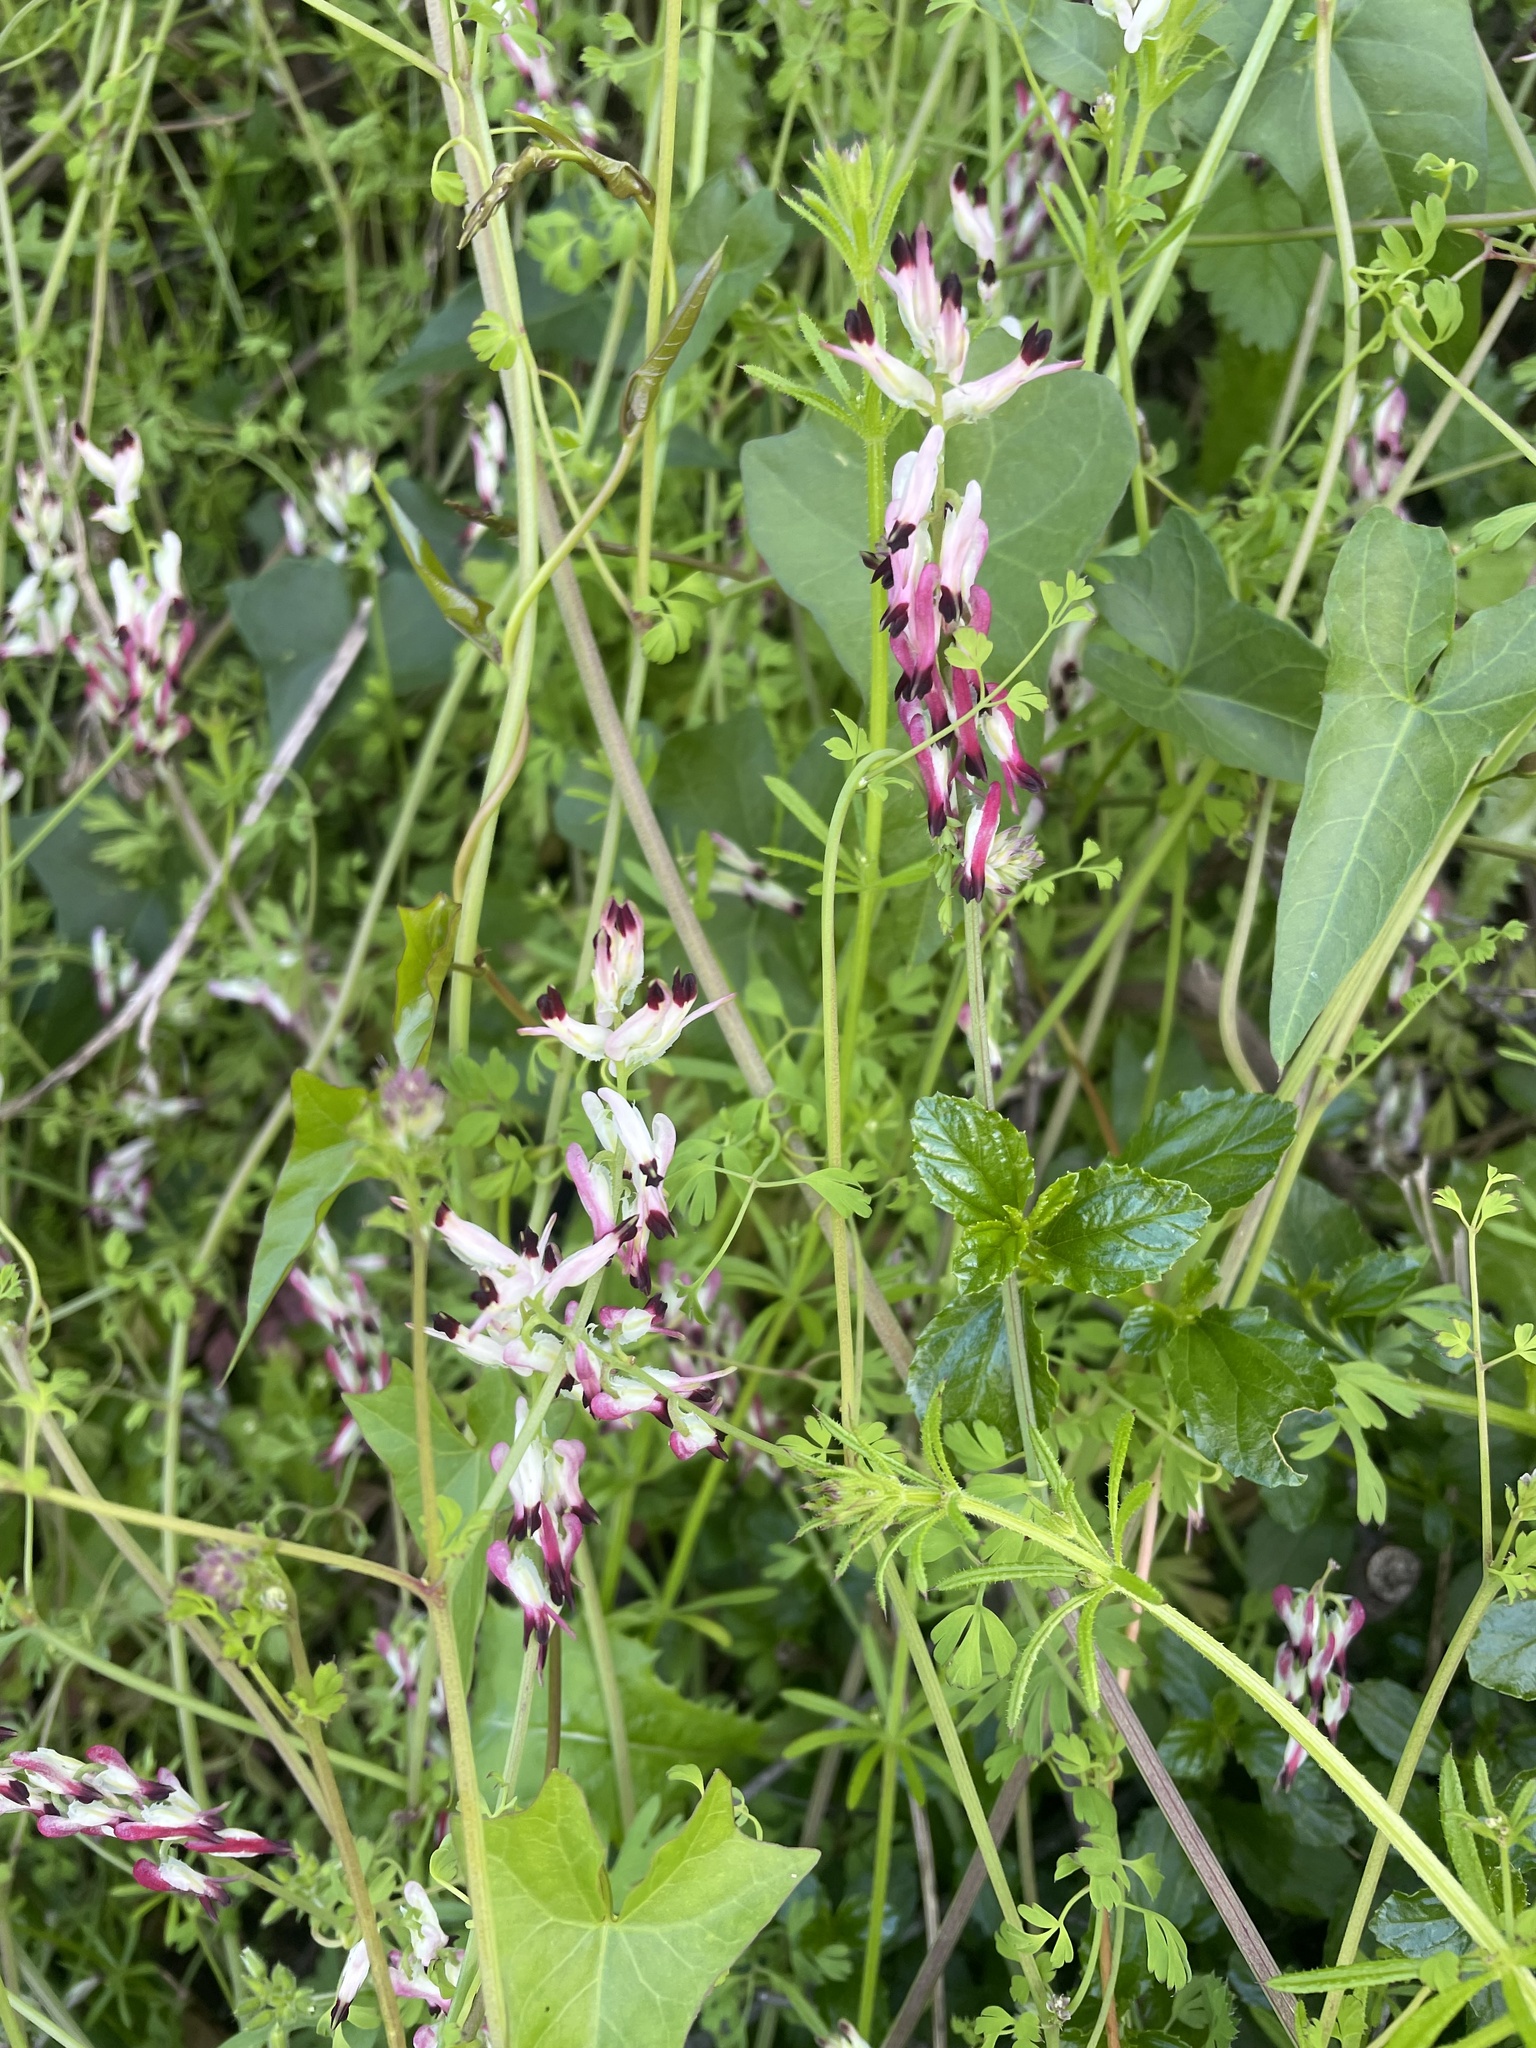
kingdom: Plantae
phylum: Tracheophyta
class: Magnoliopsida
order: Ranunculales
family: Papaveraceae
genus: Fumaria
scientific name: Fumaria capreolata
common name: White ramping-fumitory
